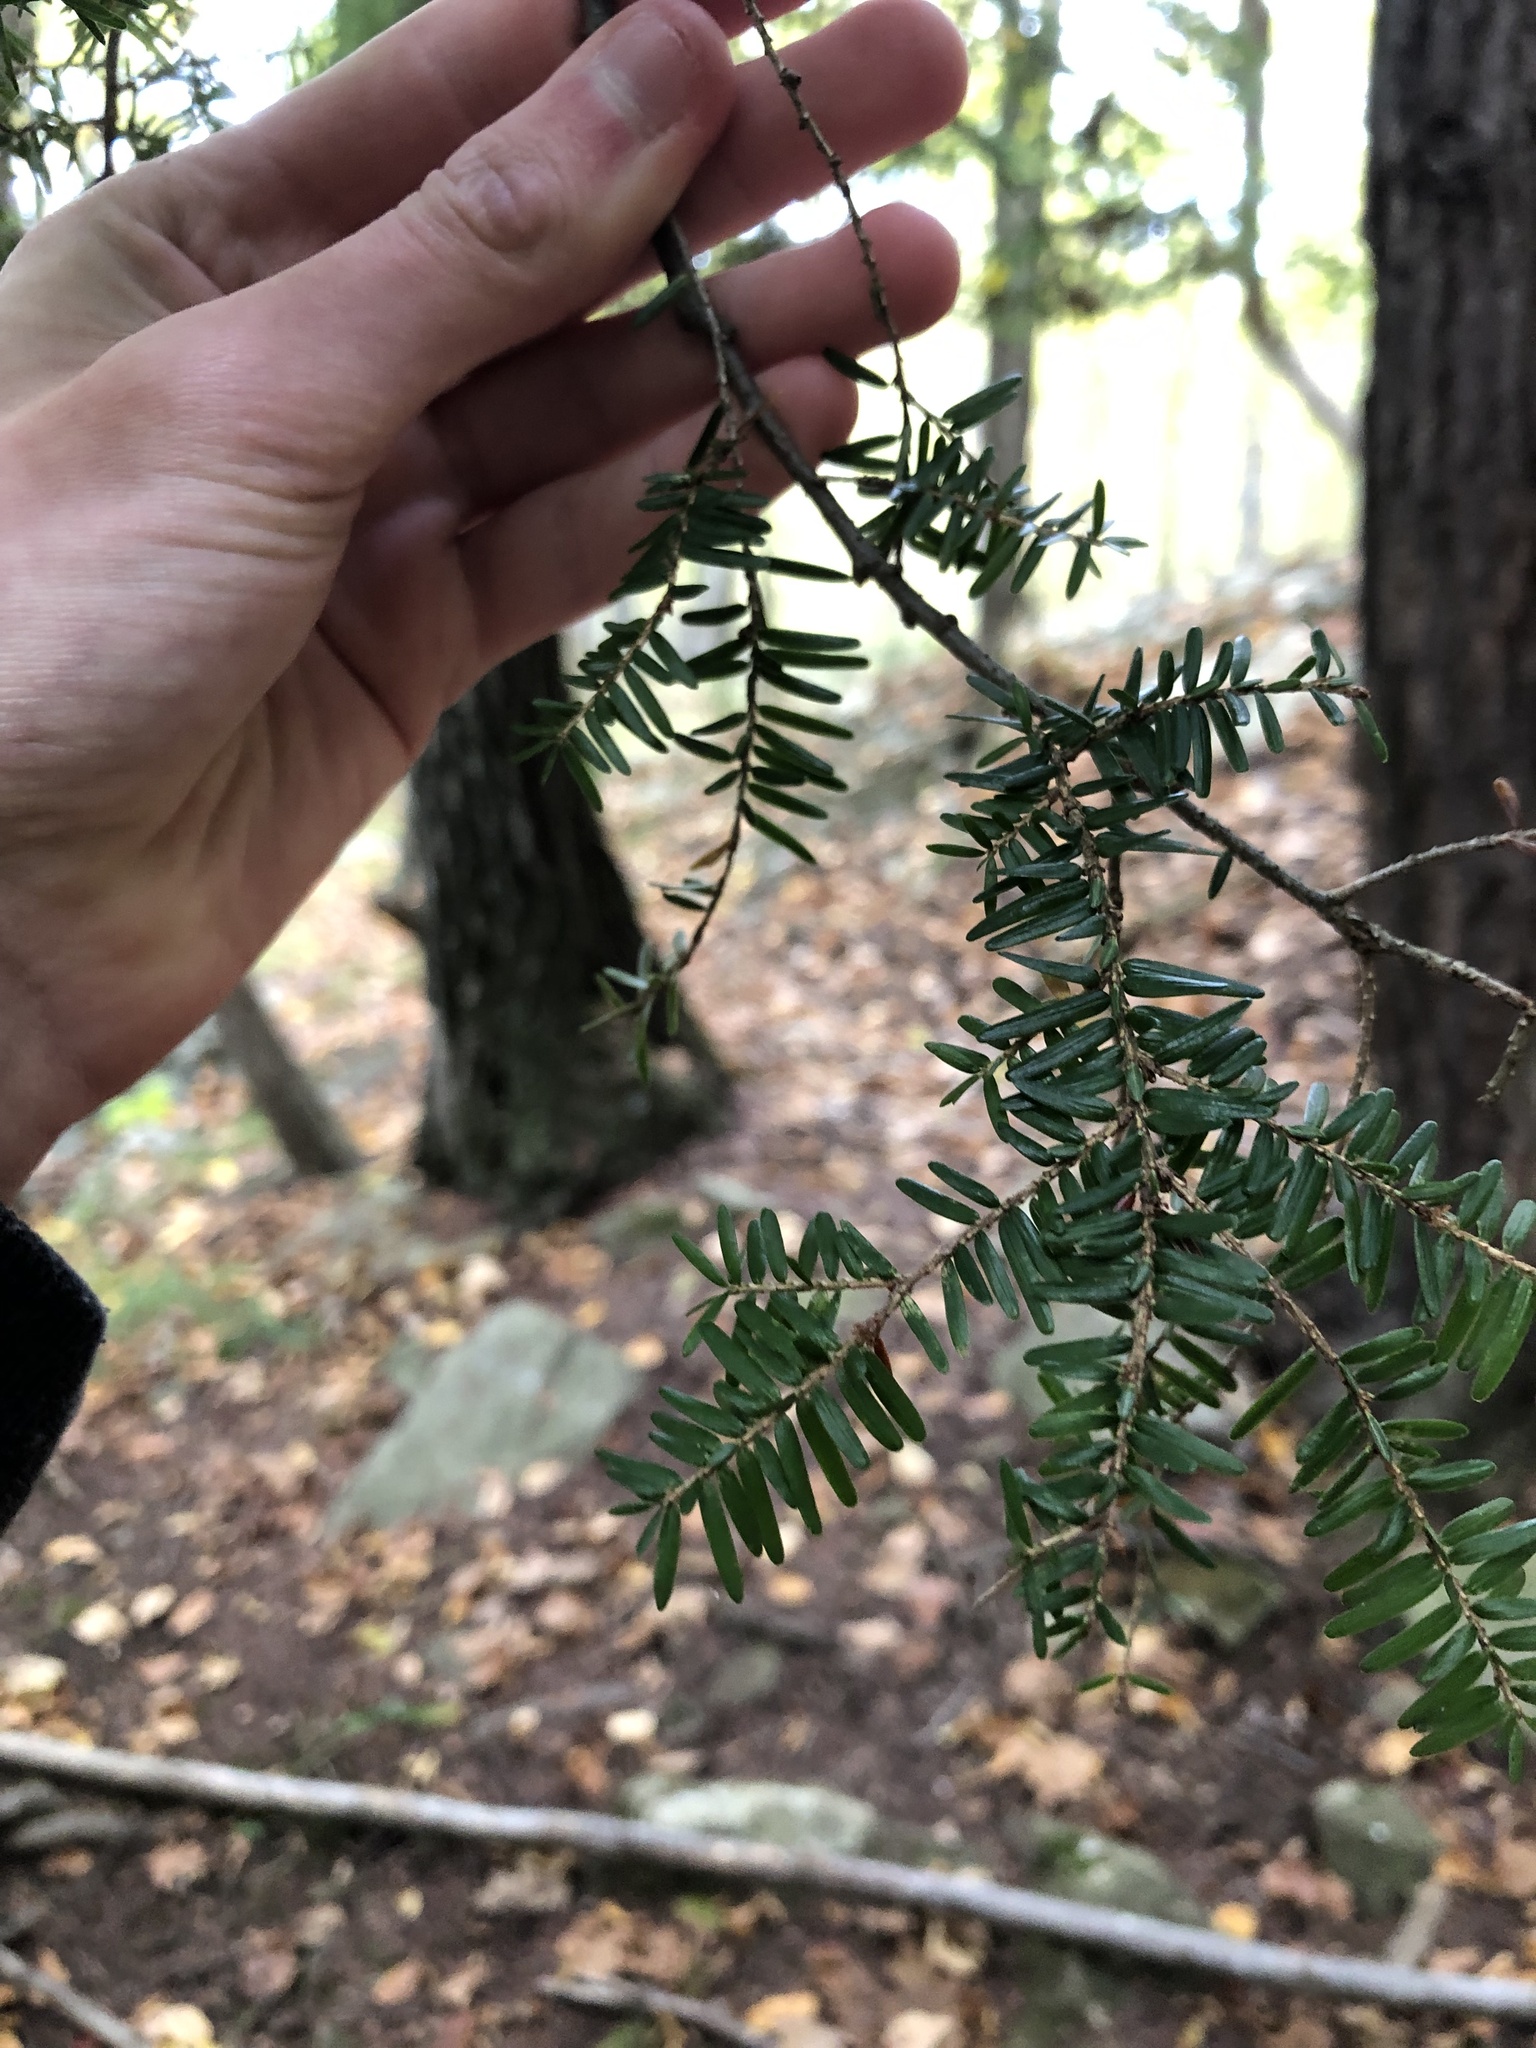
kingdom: Plantae
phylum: Tracheophyta
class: Pinopsida
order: Pinales
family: Pinaceae
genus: Tsuga
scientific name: Tsuga canadensis
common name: Eastern hemlock
